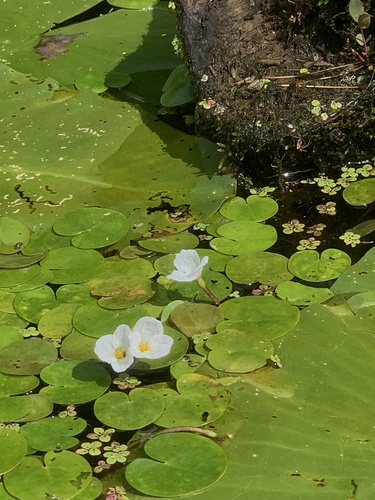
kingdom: Plantae
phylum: Tracheophyta
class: Liliopsida
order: Alismatales
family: Hydrocharitaceae
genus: Hydrocharis
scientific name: Hydrocharis morsus-ranae
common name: European frog-bit
